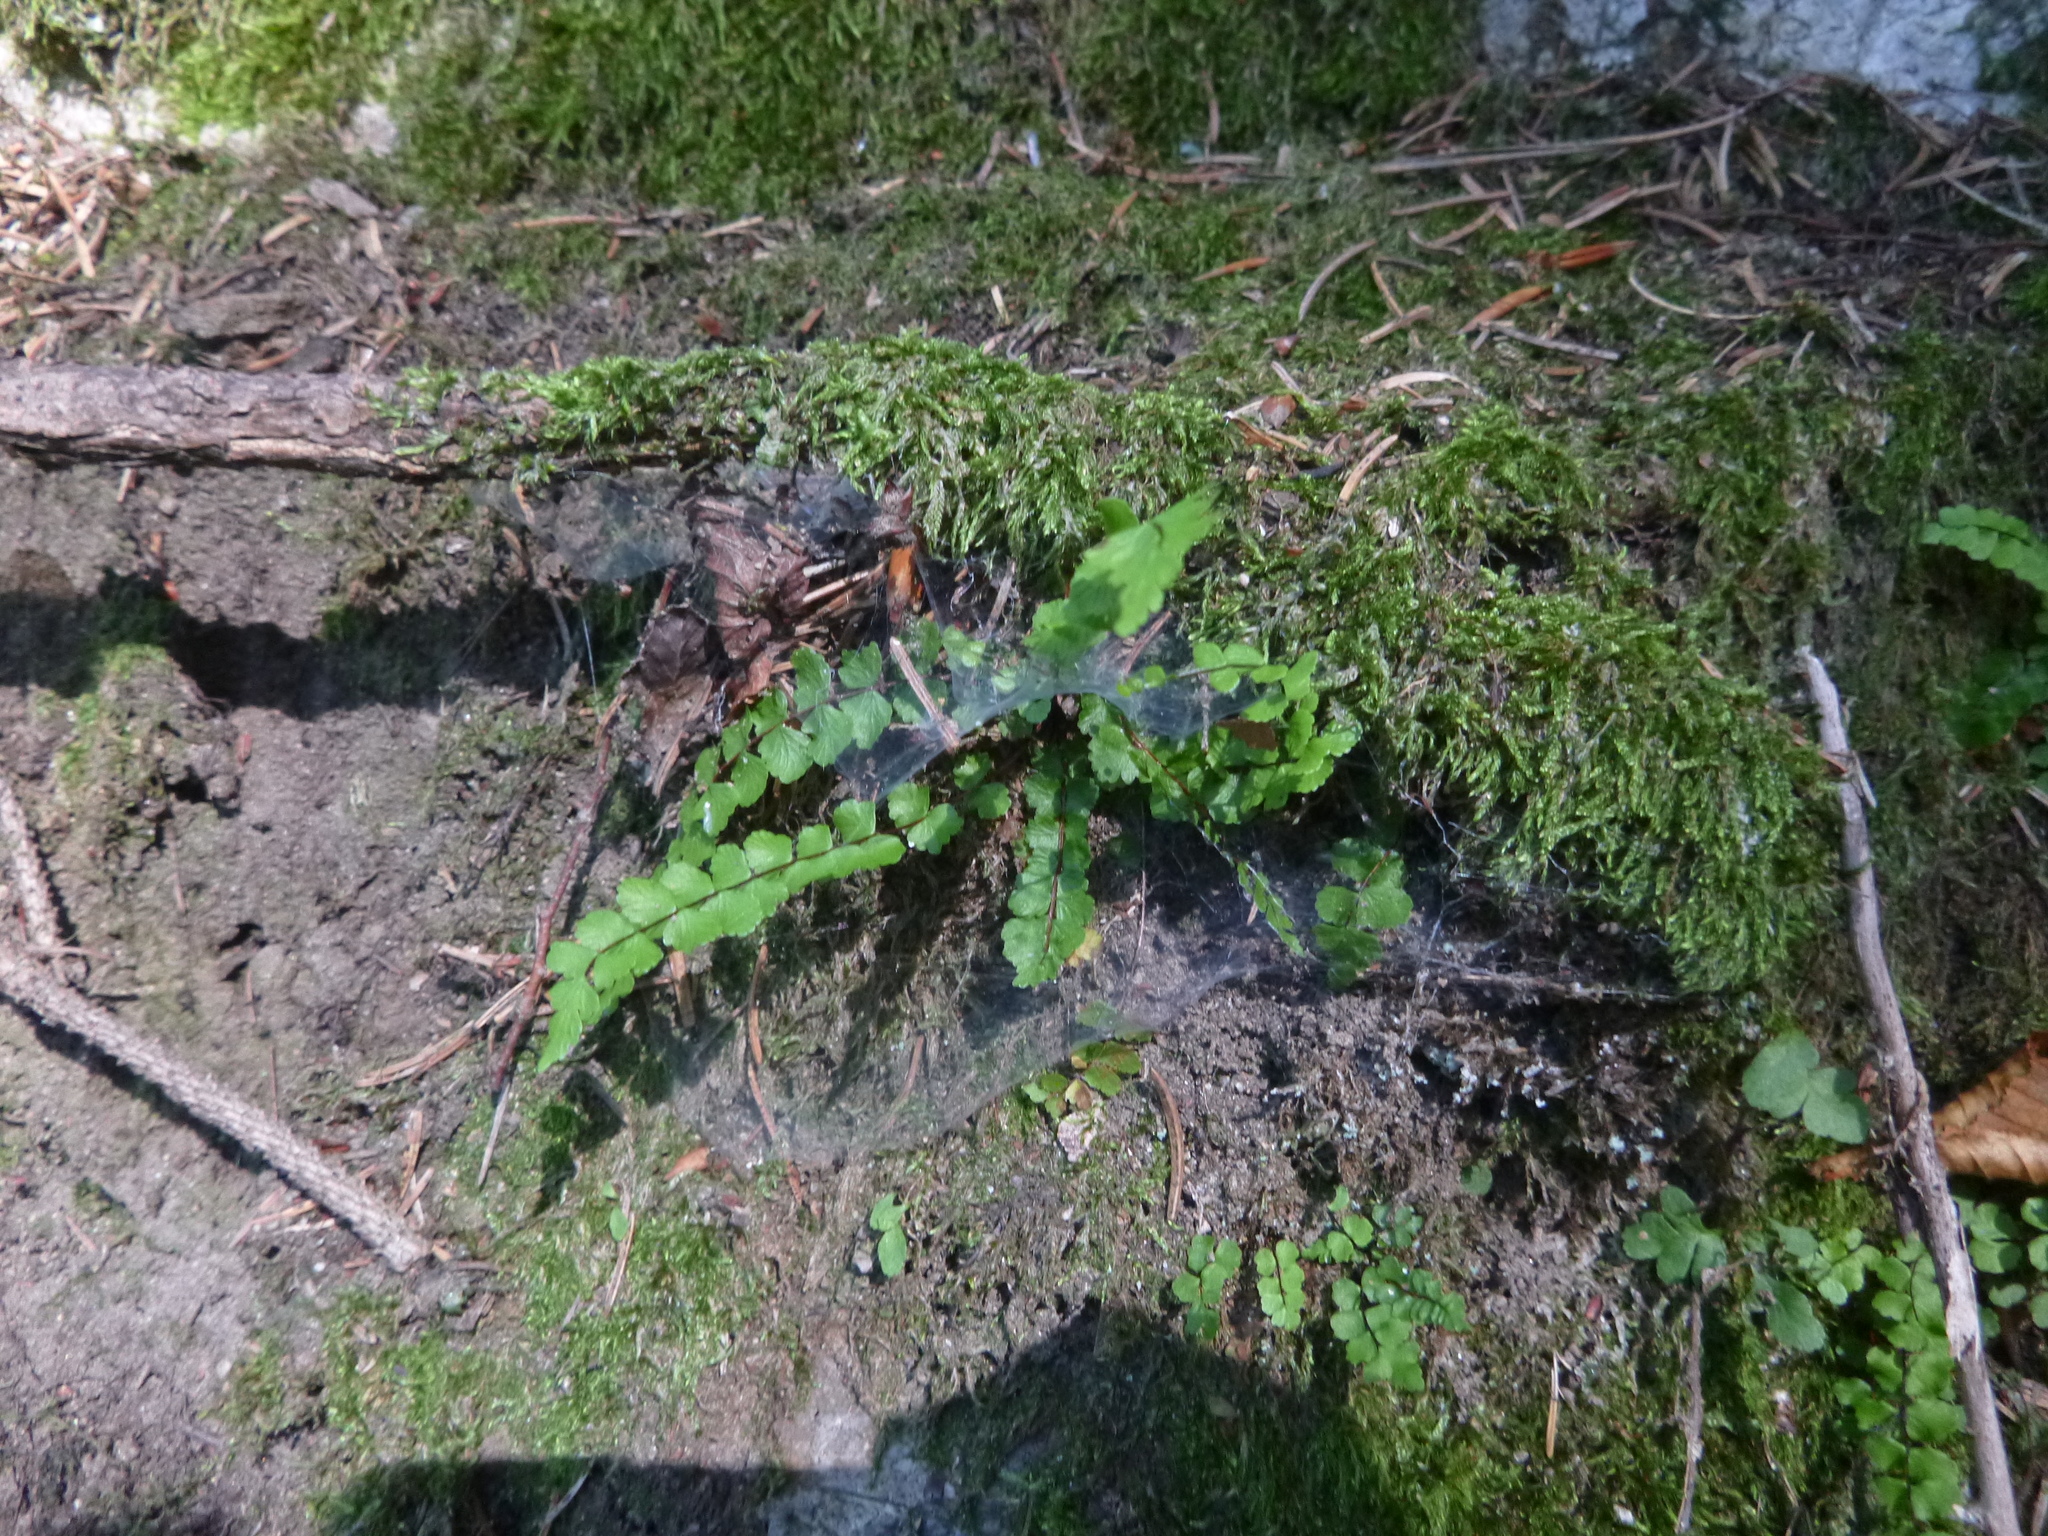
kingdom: Plantae
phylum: Tracheophyta
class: Polypodiopsida
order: Polypodiales
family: Aspleniaceae
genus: Asplenium
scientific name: Asplenium trichomanes
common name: Maidenhair spleenwort
